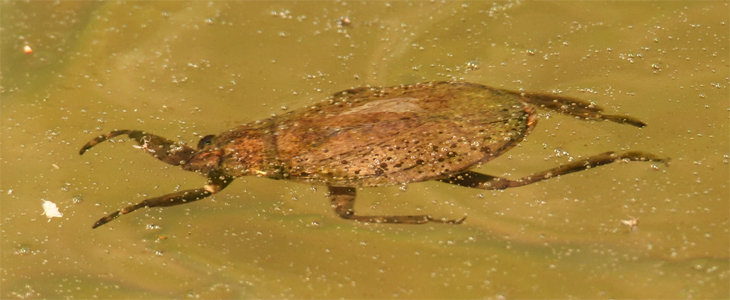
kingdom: Animalia
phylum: Arthropoda
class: Insecta
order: Hemiptera
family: Belostomatidae
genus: Abedus
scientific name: Abedus indentatus
